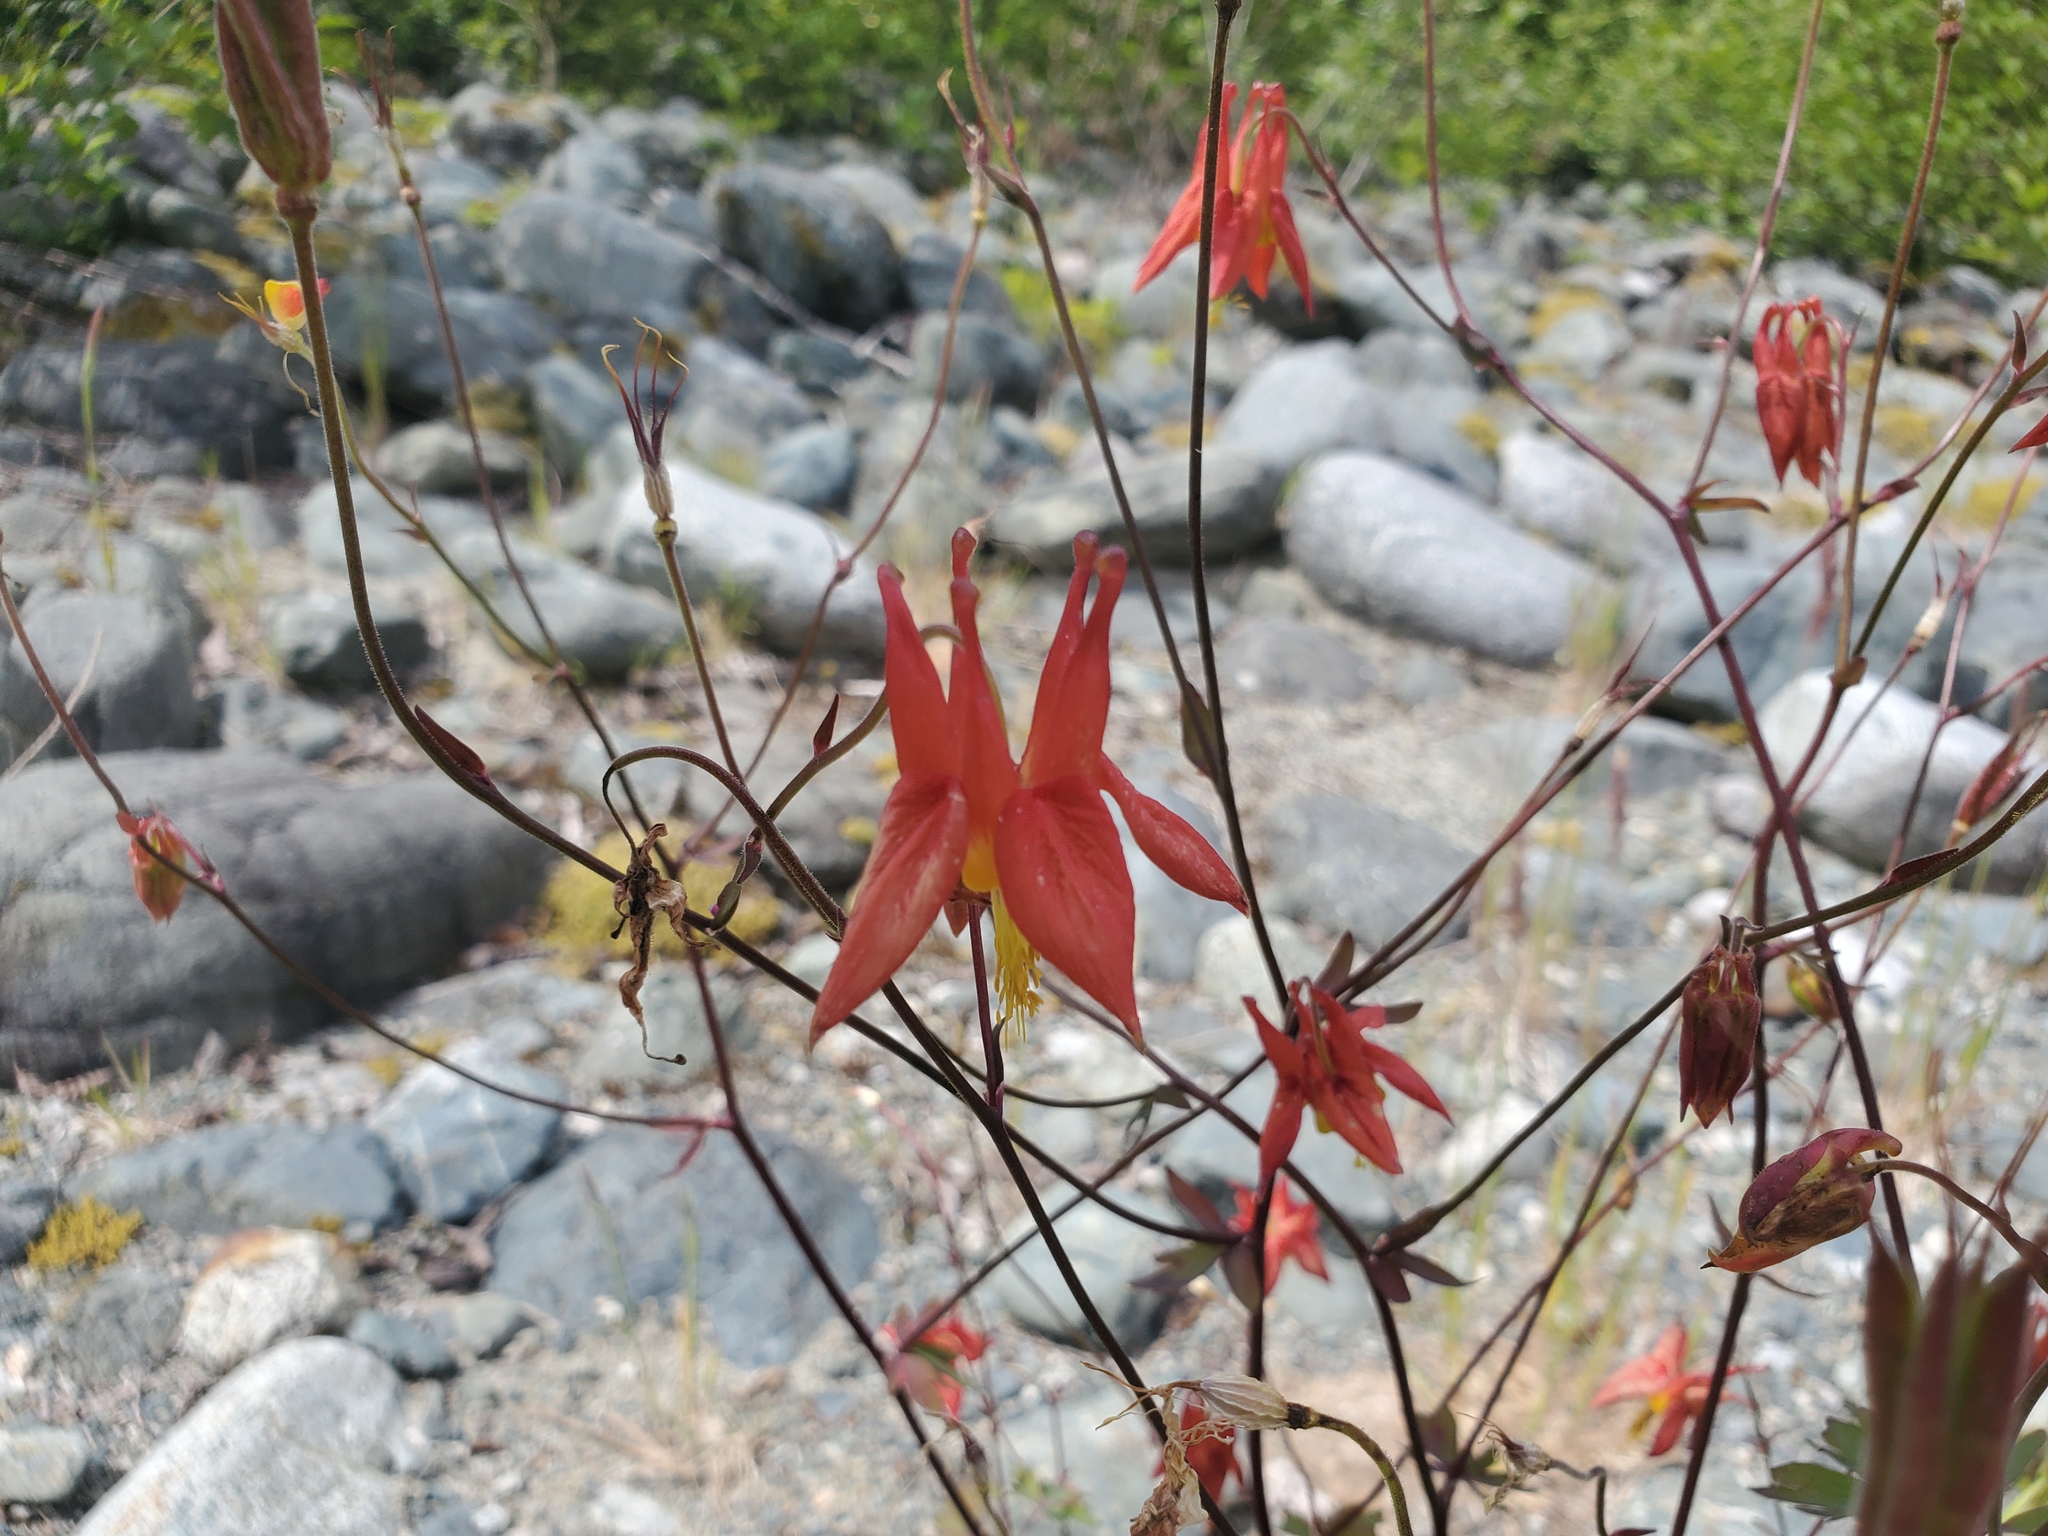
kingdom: Plantae
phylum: Tracheophyta
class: Magnoliopsida
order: Ranunculales
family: Ranunculaceae
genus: Aquilegia
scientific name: Aquilegia formosa
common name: Sitka columbine
